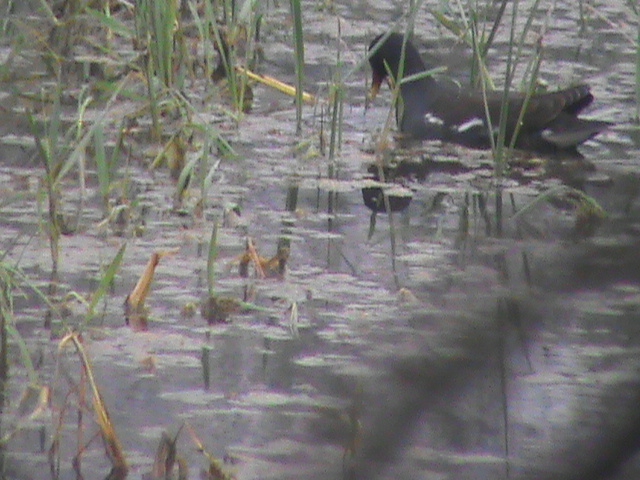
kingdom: Animalia
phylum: Chordata
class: Aves
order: Gruiformes
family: Rallidae
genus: Gallinula
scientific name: Gallinula chloropus
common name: Common moorhen
